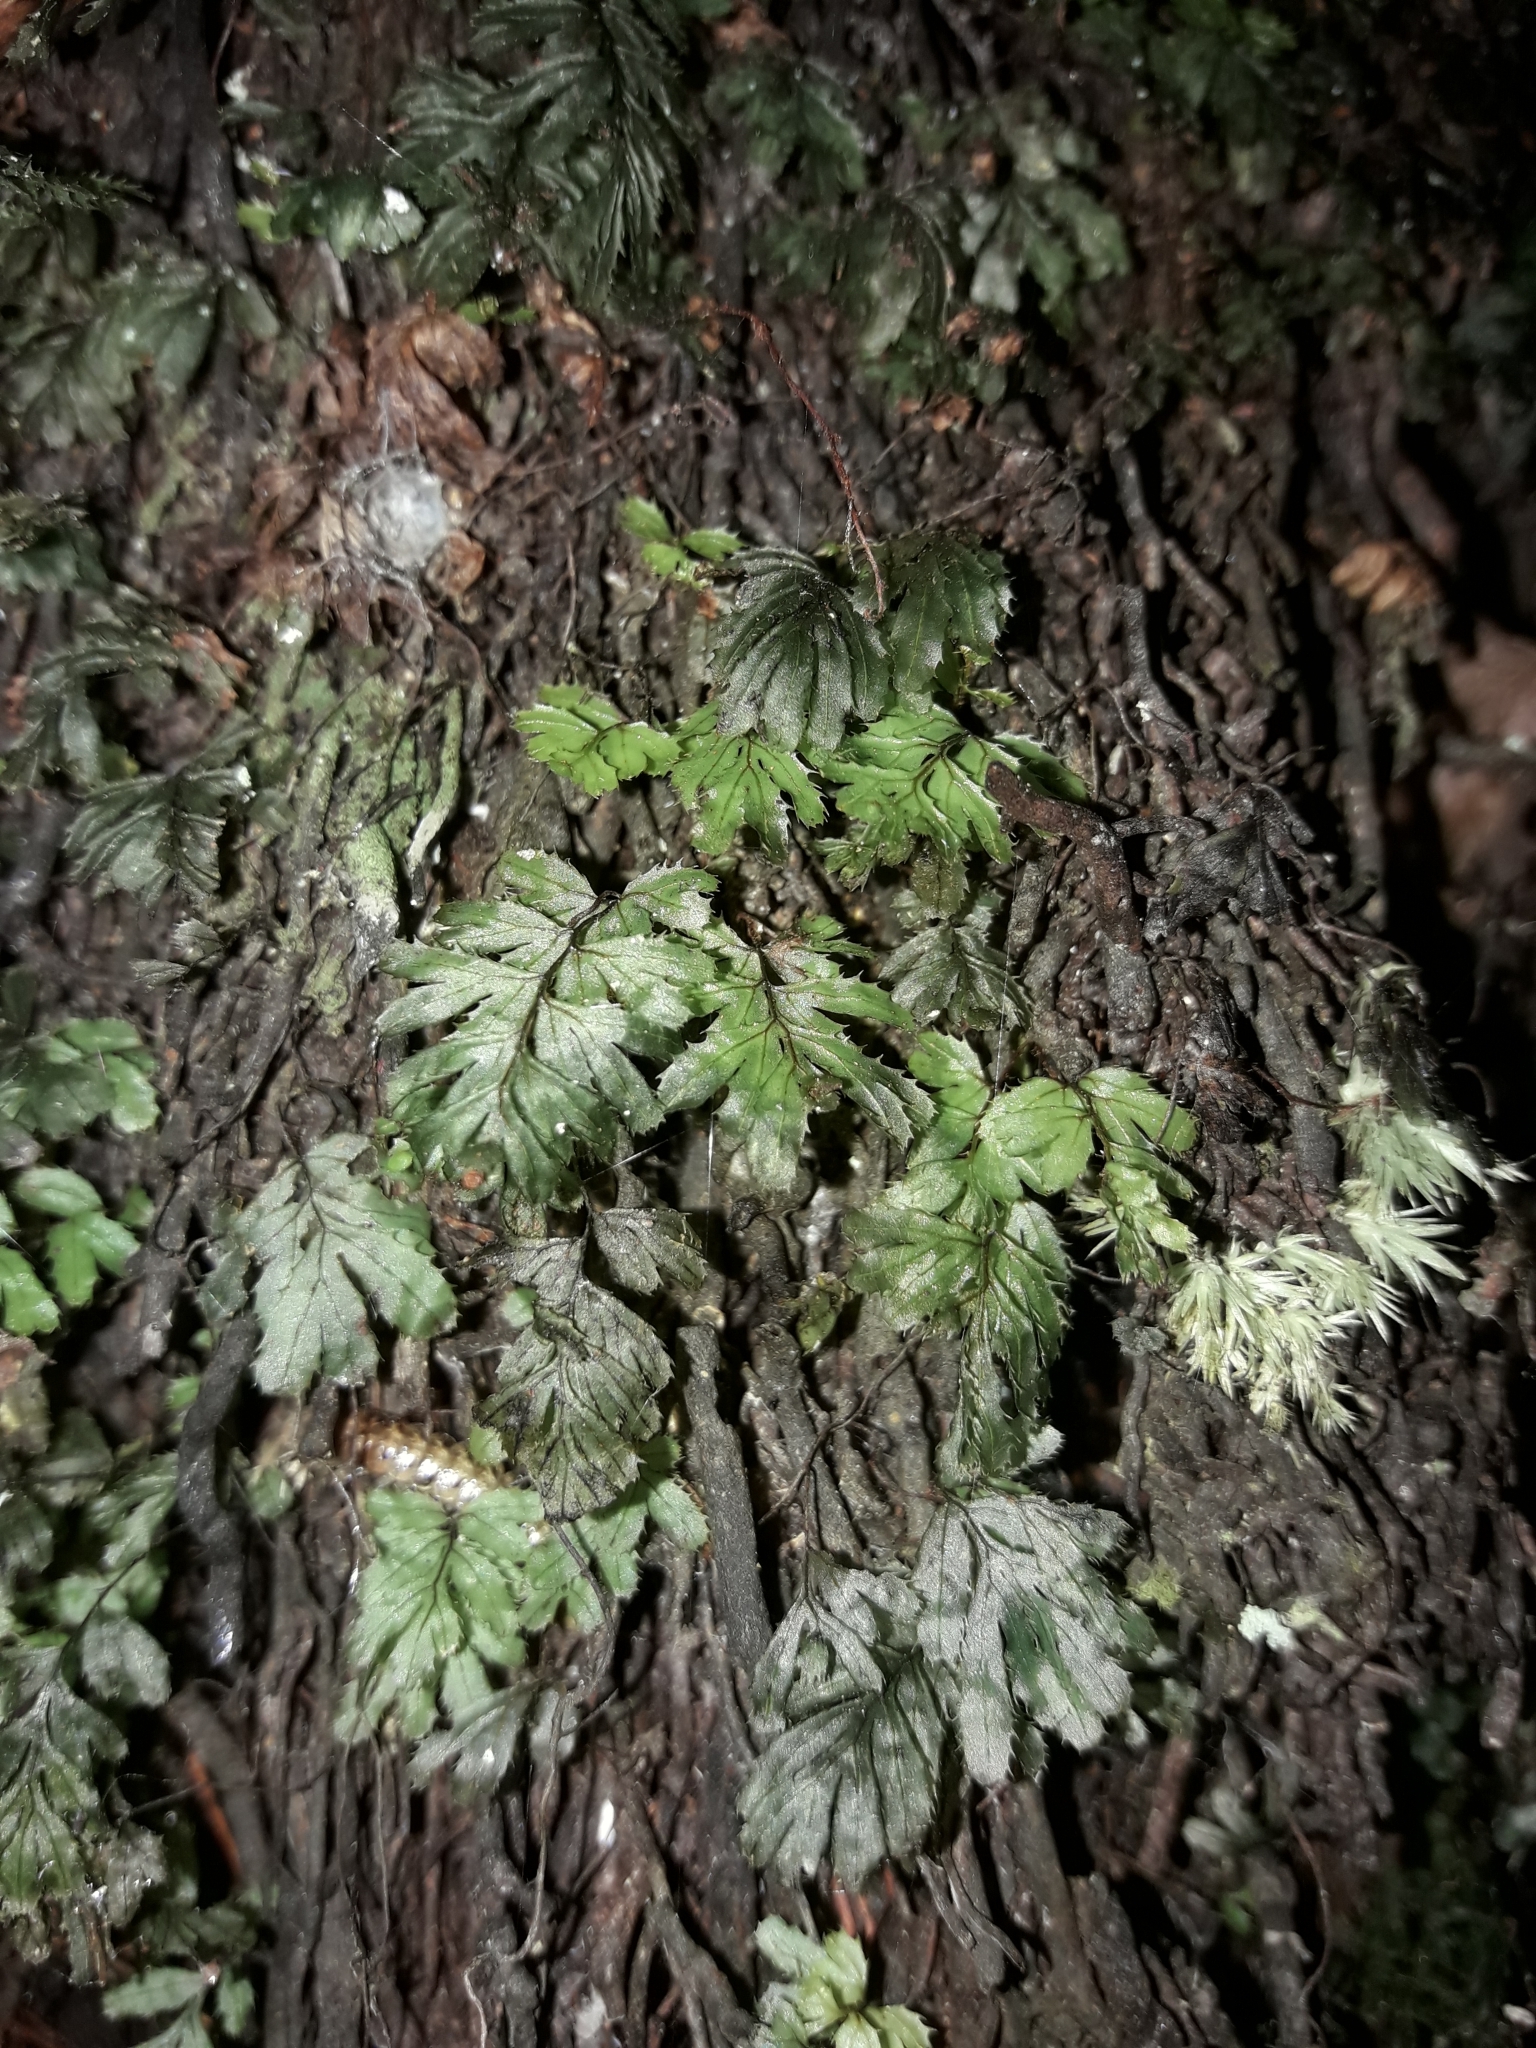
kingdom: Plantae
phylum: Tracheophyta
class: Polypodiopsida
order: Hymenophyllales
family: Hymenophyllaceae
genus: Hymenophyllum
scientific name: Hymenophyllum revolutum
